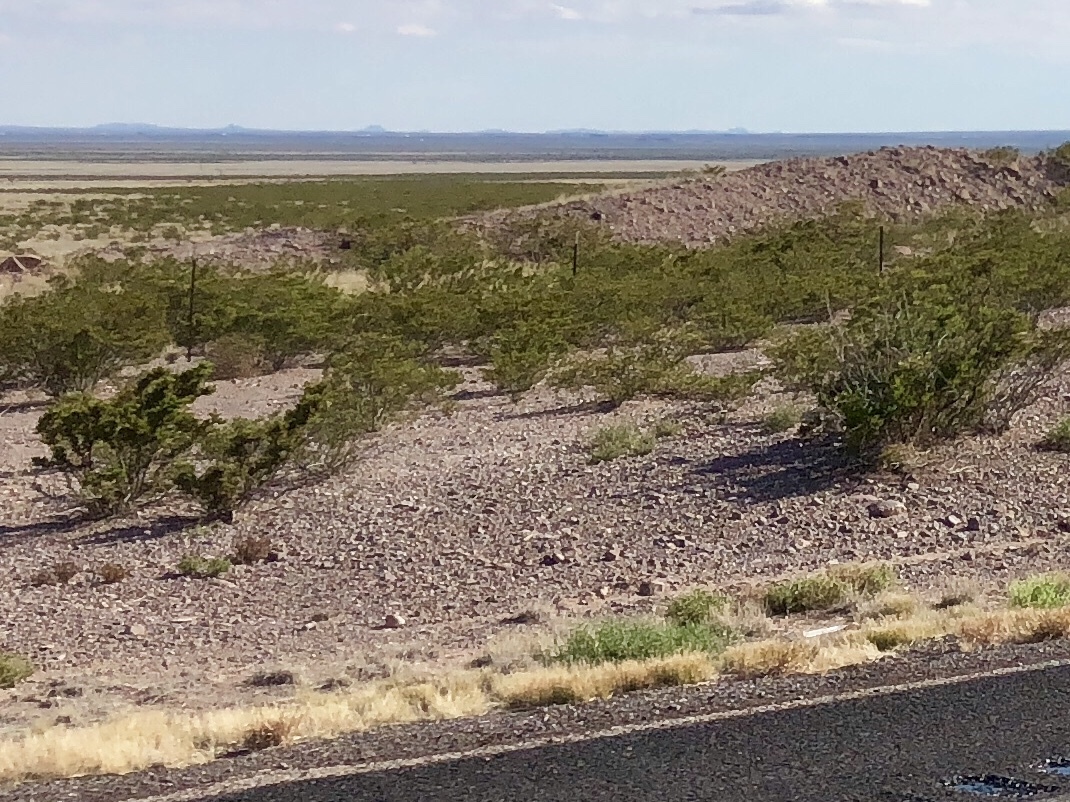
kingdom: Plantae
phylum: Tracheophyta
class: Magnoliopsida
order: Zygophyllales
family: Zygophyllaceae
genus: Larrea
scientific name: Larrea tridentata
